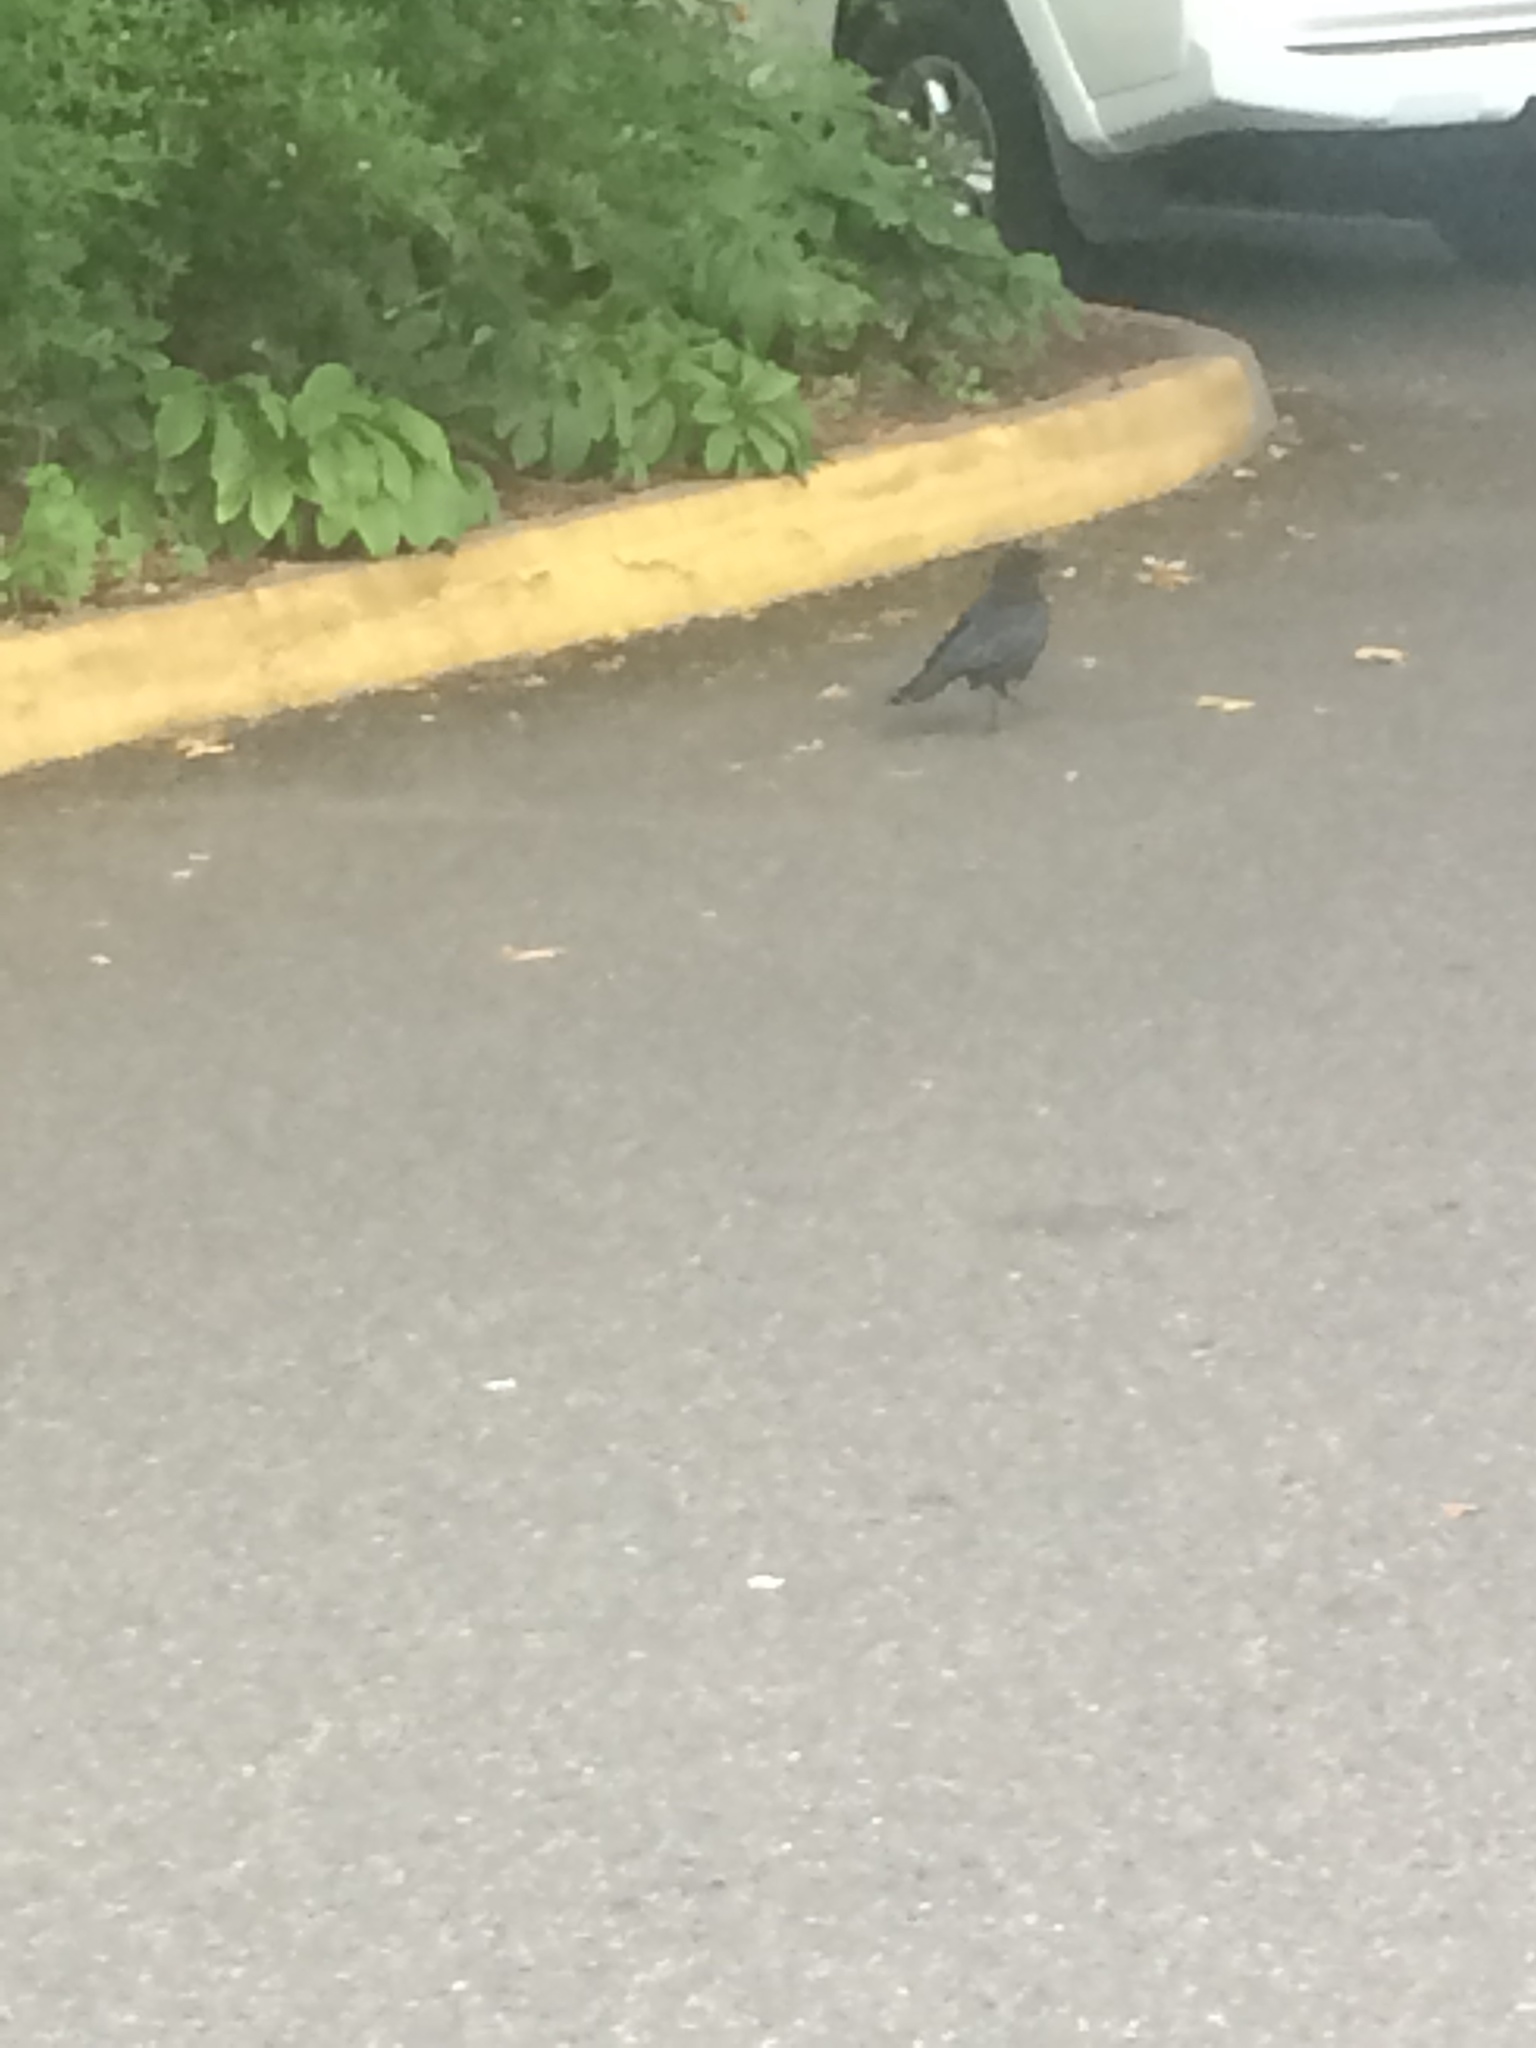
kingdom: Animalia
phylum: Chordata
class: Aves
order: Passeriformes
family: Corvidae
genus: Corvus
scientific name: Corvus brachyrhynchos
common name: American crow
